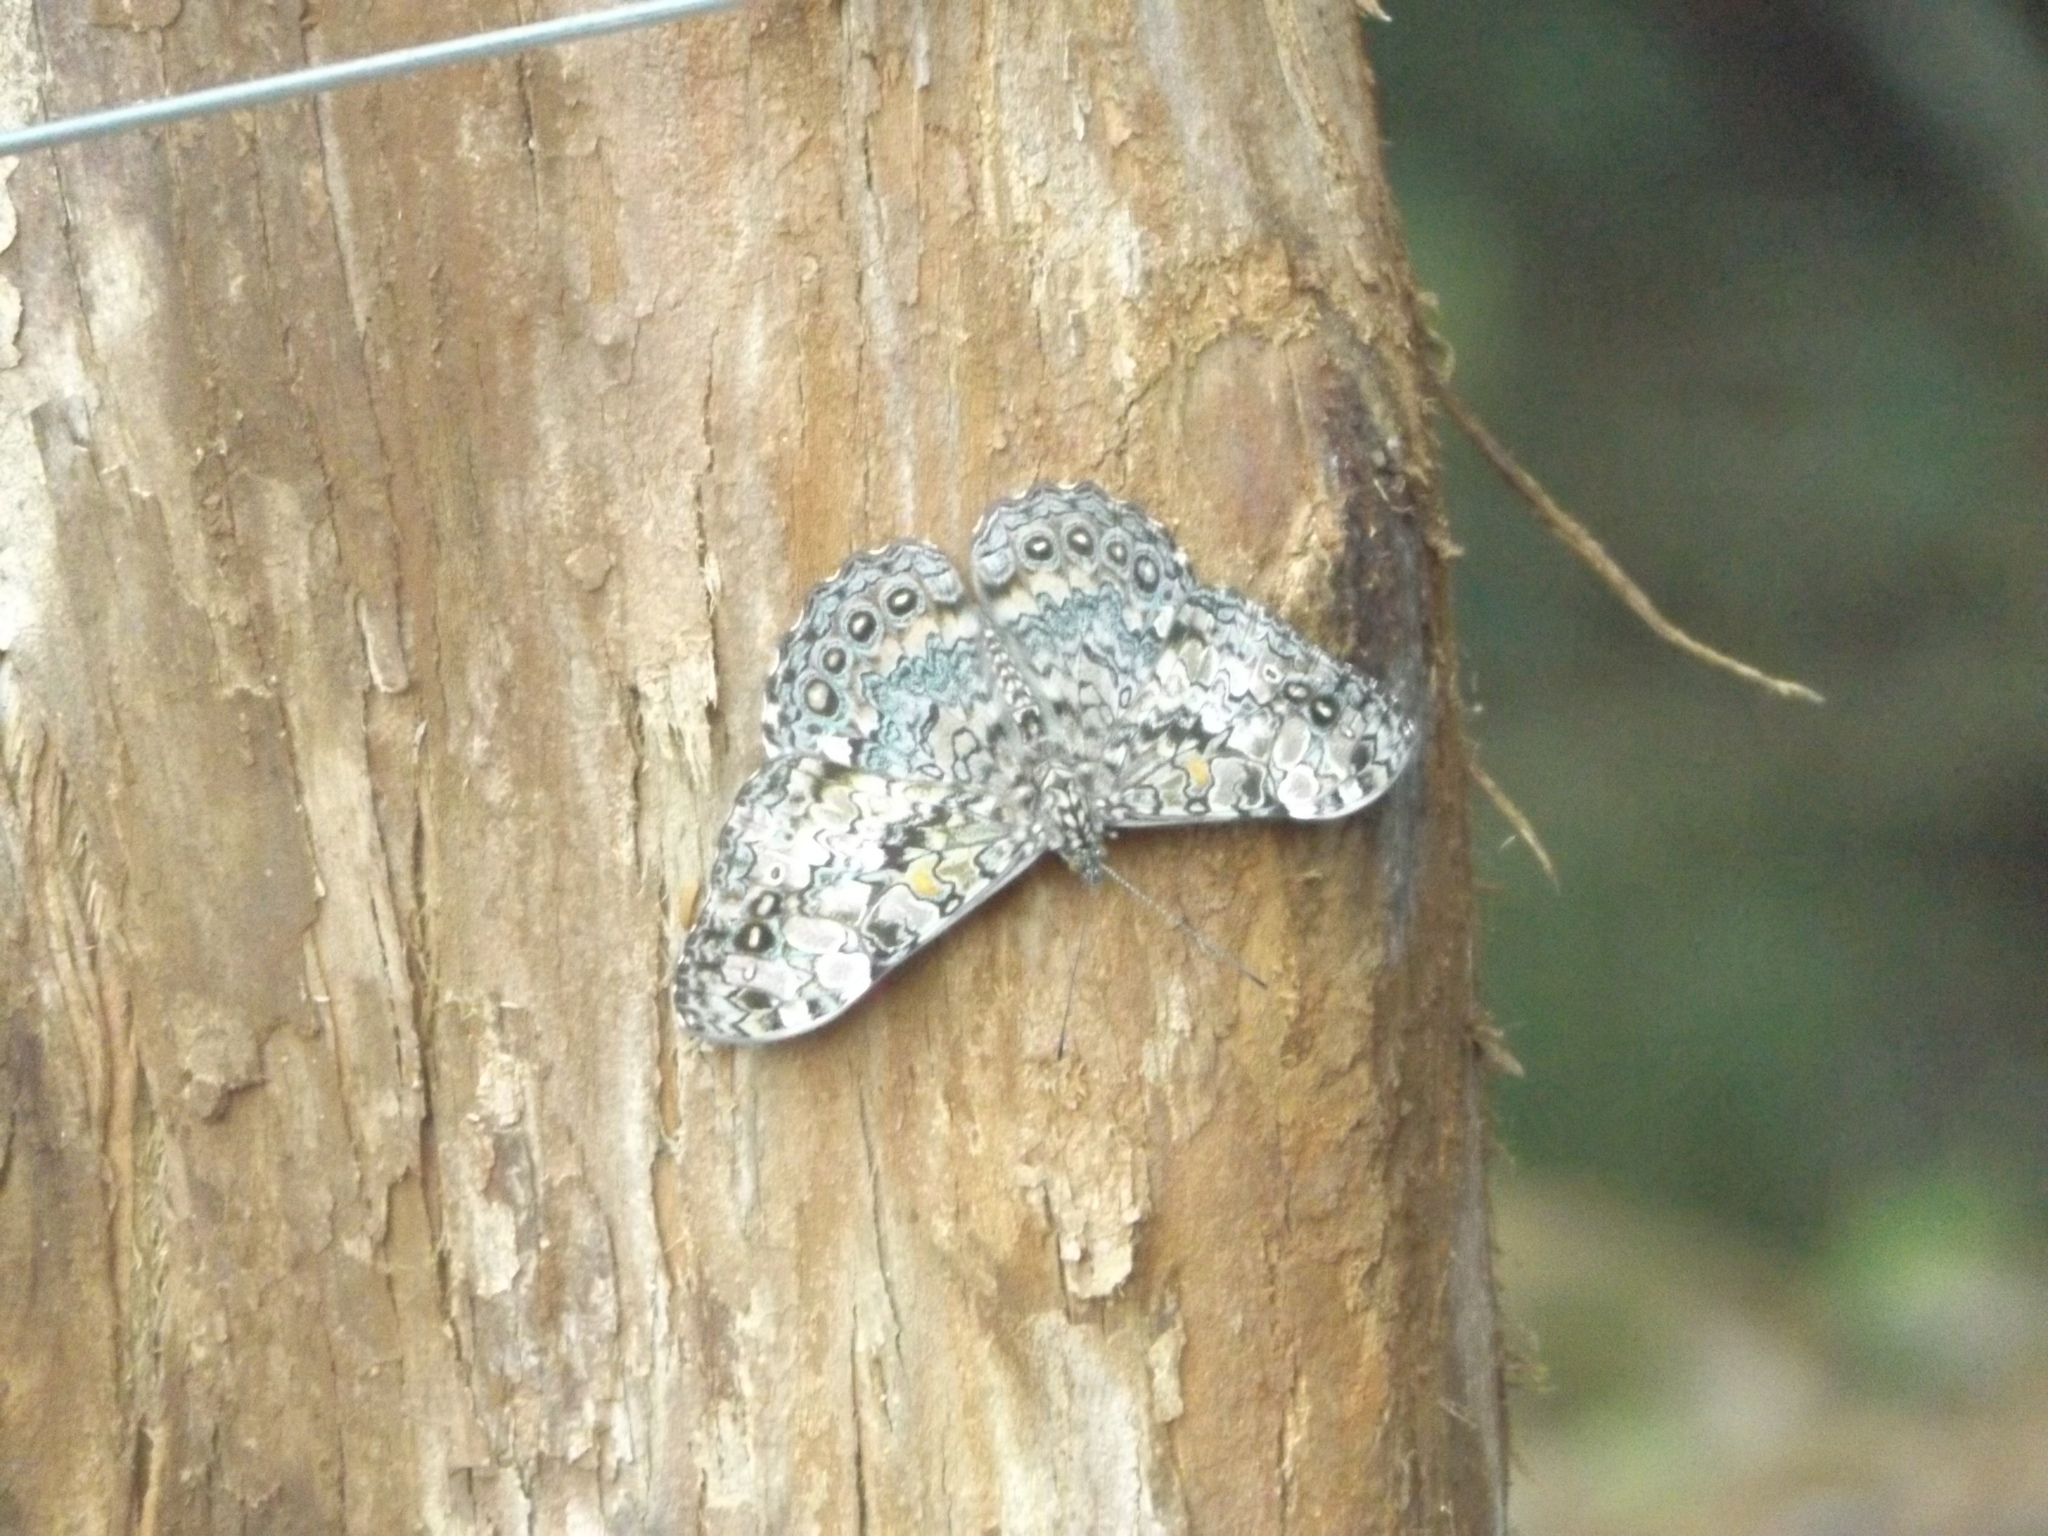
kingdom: Animalia
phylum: Arthropoda
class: Insecta
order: Lepidoptera
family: Nymphalidae
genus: Hamadryas
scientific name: Hamadryas epinome
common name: Epinome cracker
